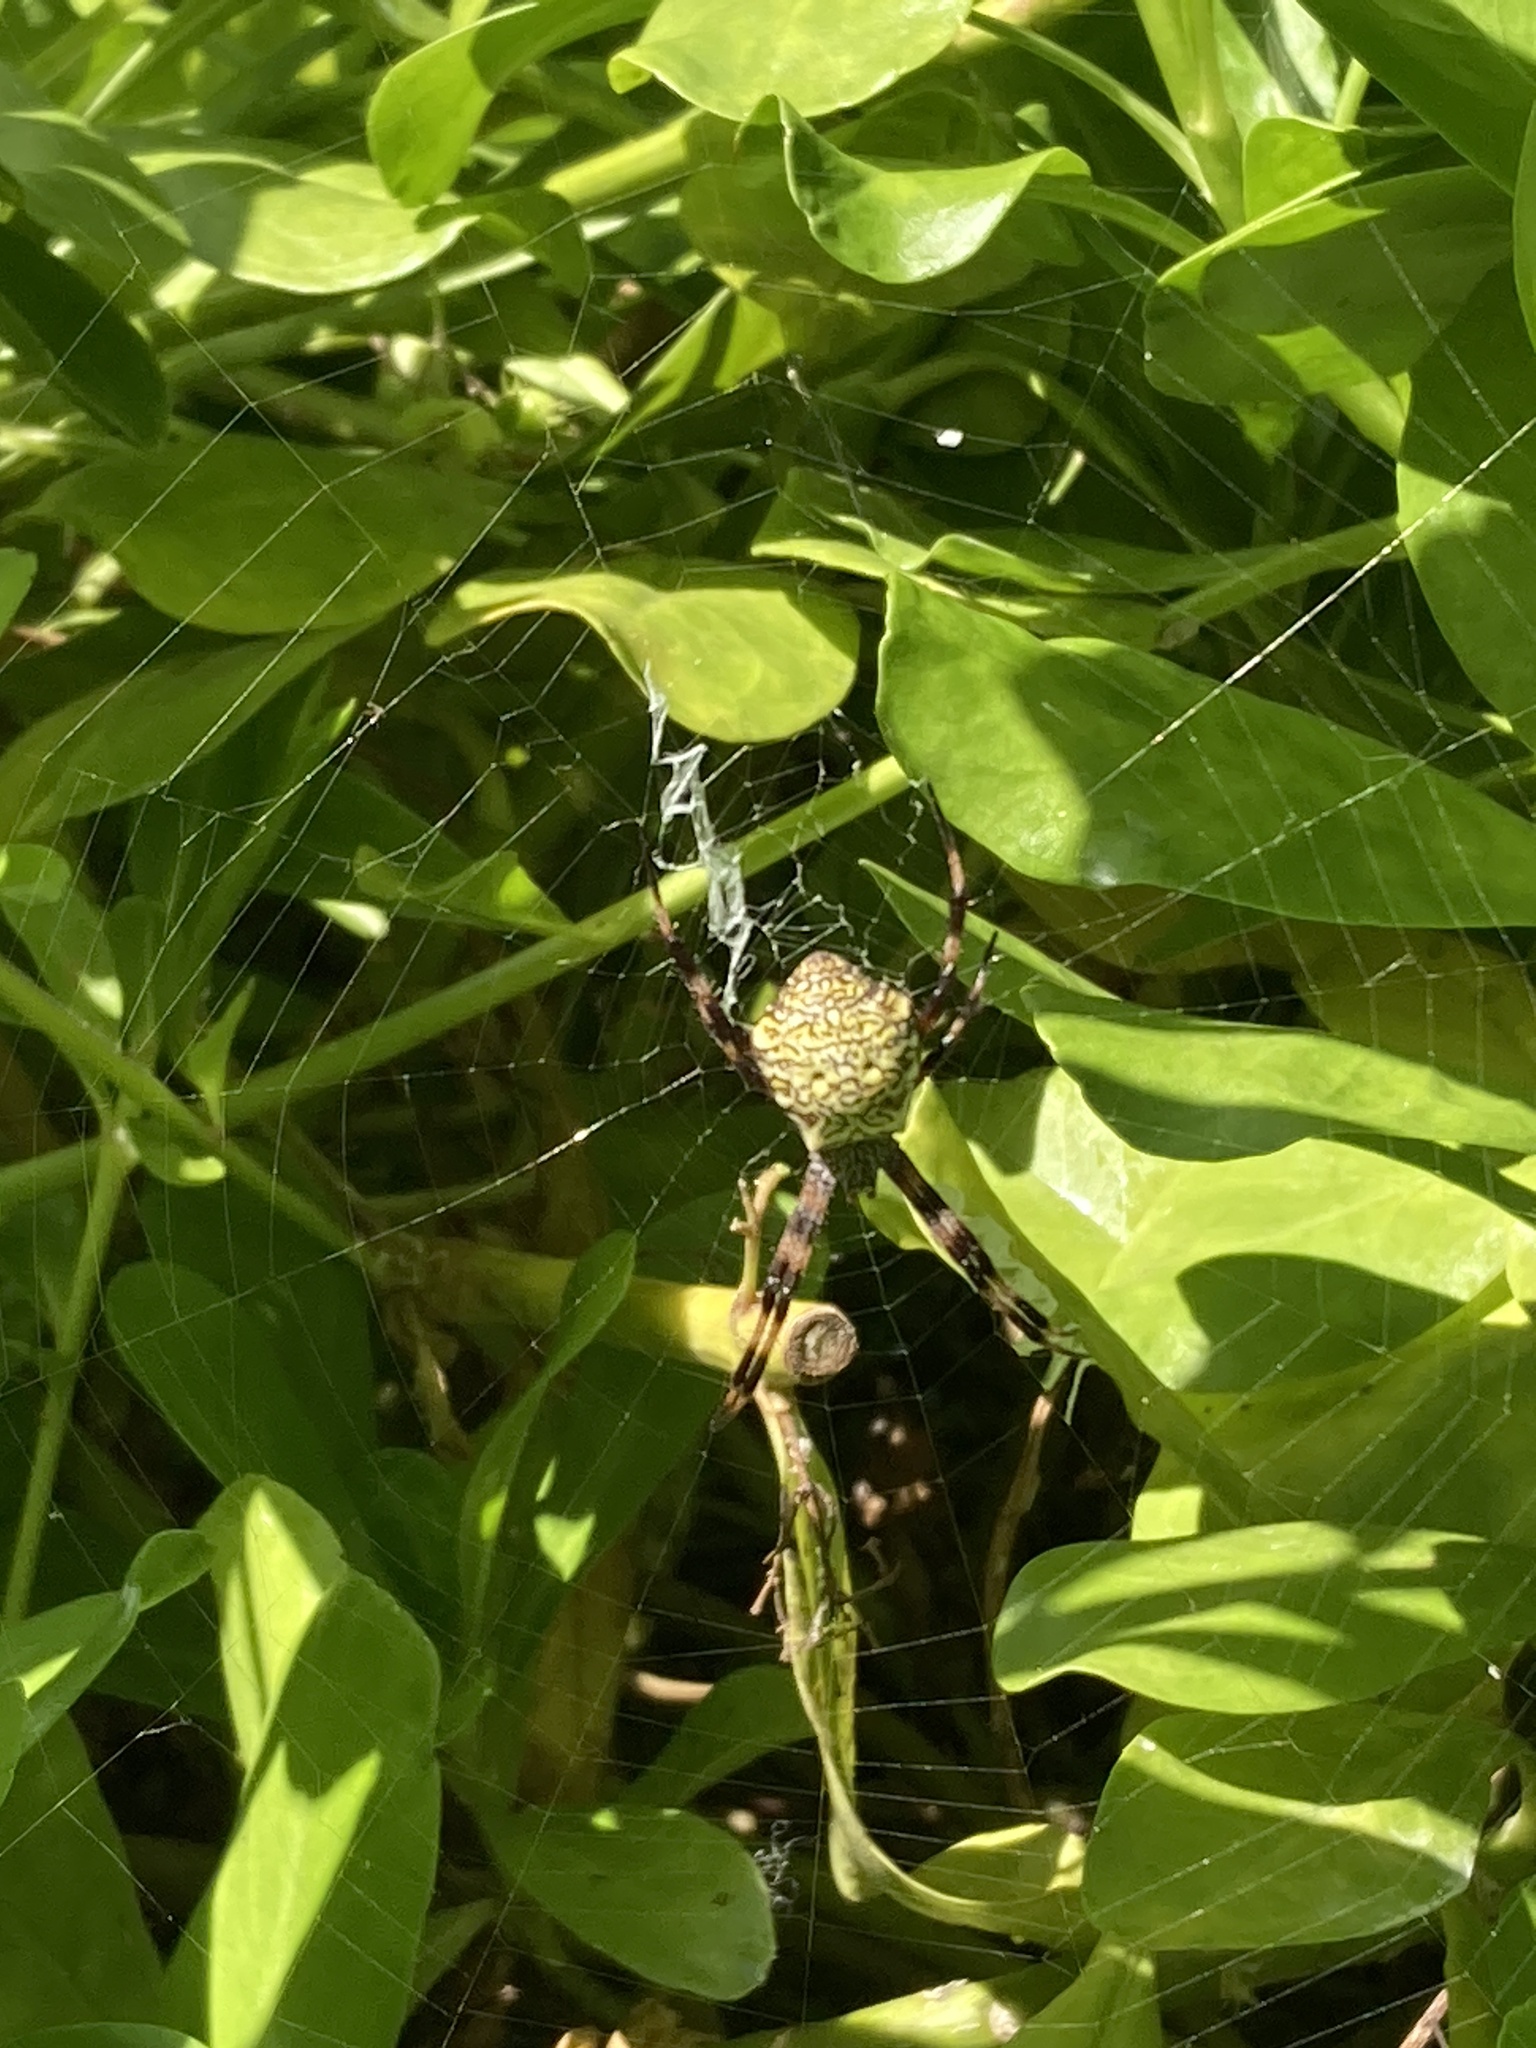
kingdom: Animalia
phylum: Arthropoda
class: Arachnida
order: Araneae
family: Araneidae
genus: Argiope
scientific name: Argiope appensa
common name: Garden spider
